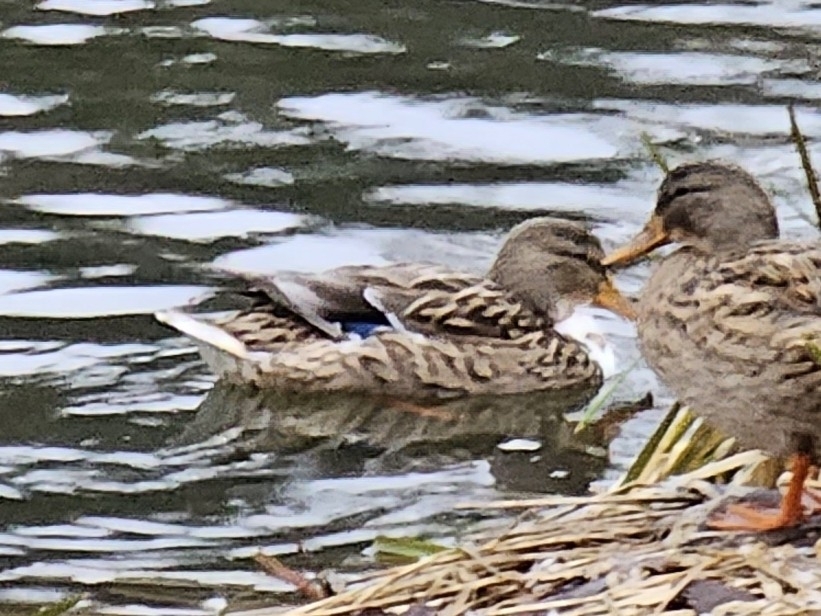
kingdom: Animalia
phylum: Chordata
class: Aves
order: Anseriformes
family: Anatidae
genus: Anas
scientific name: Anas platyrhynchos
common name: Mallard
